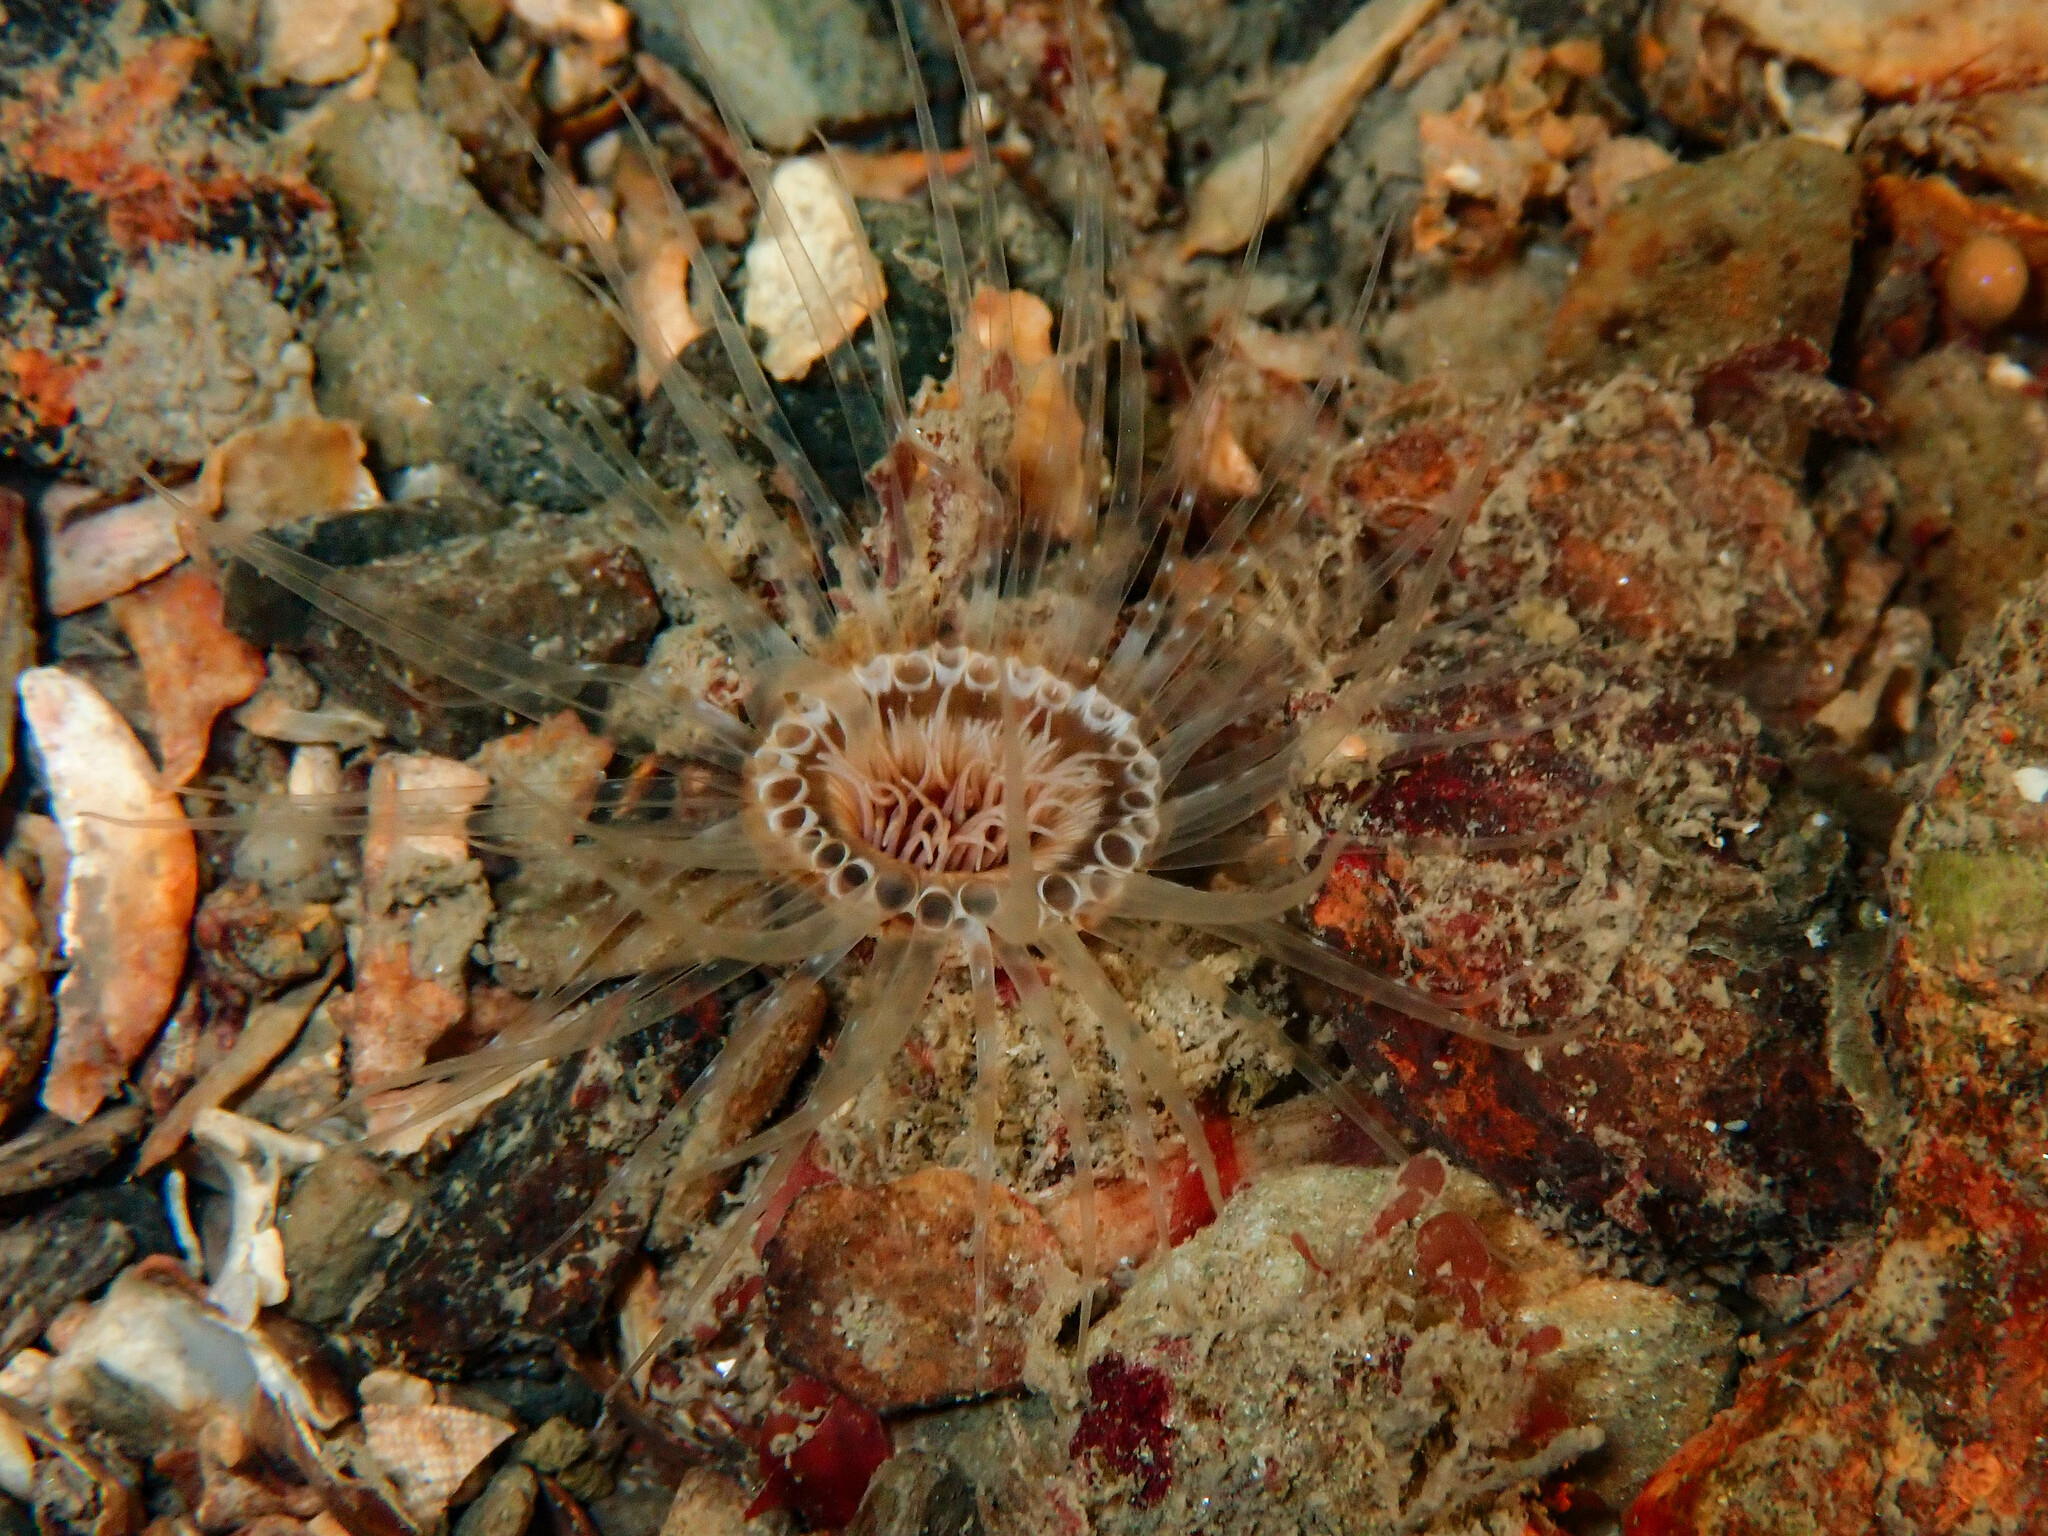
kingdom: Animalia
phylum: Cnidaria
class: Anthozoa
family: Cerianthidae
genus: Synarachnactis
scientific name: Synarachnactis
